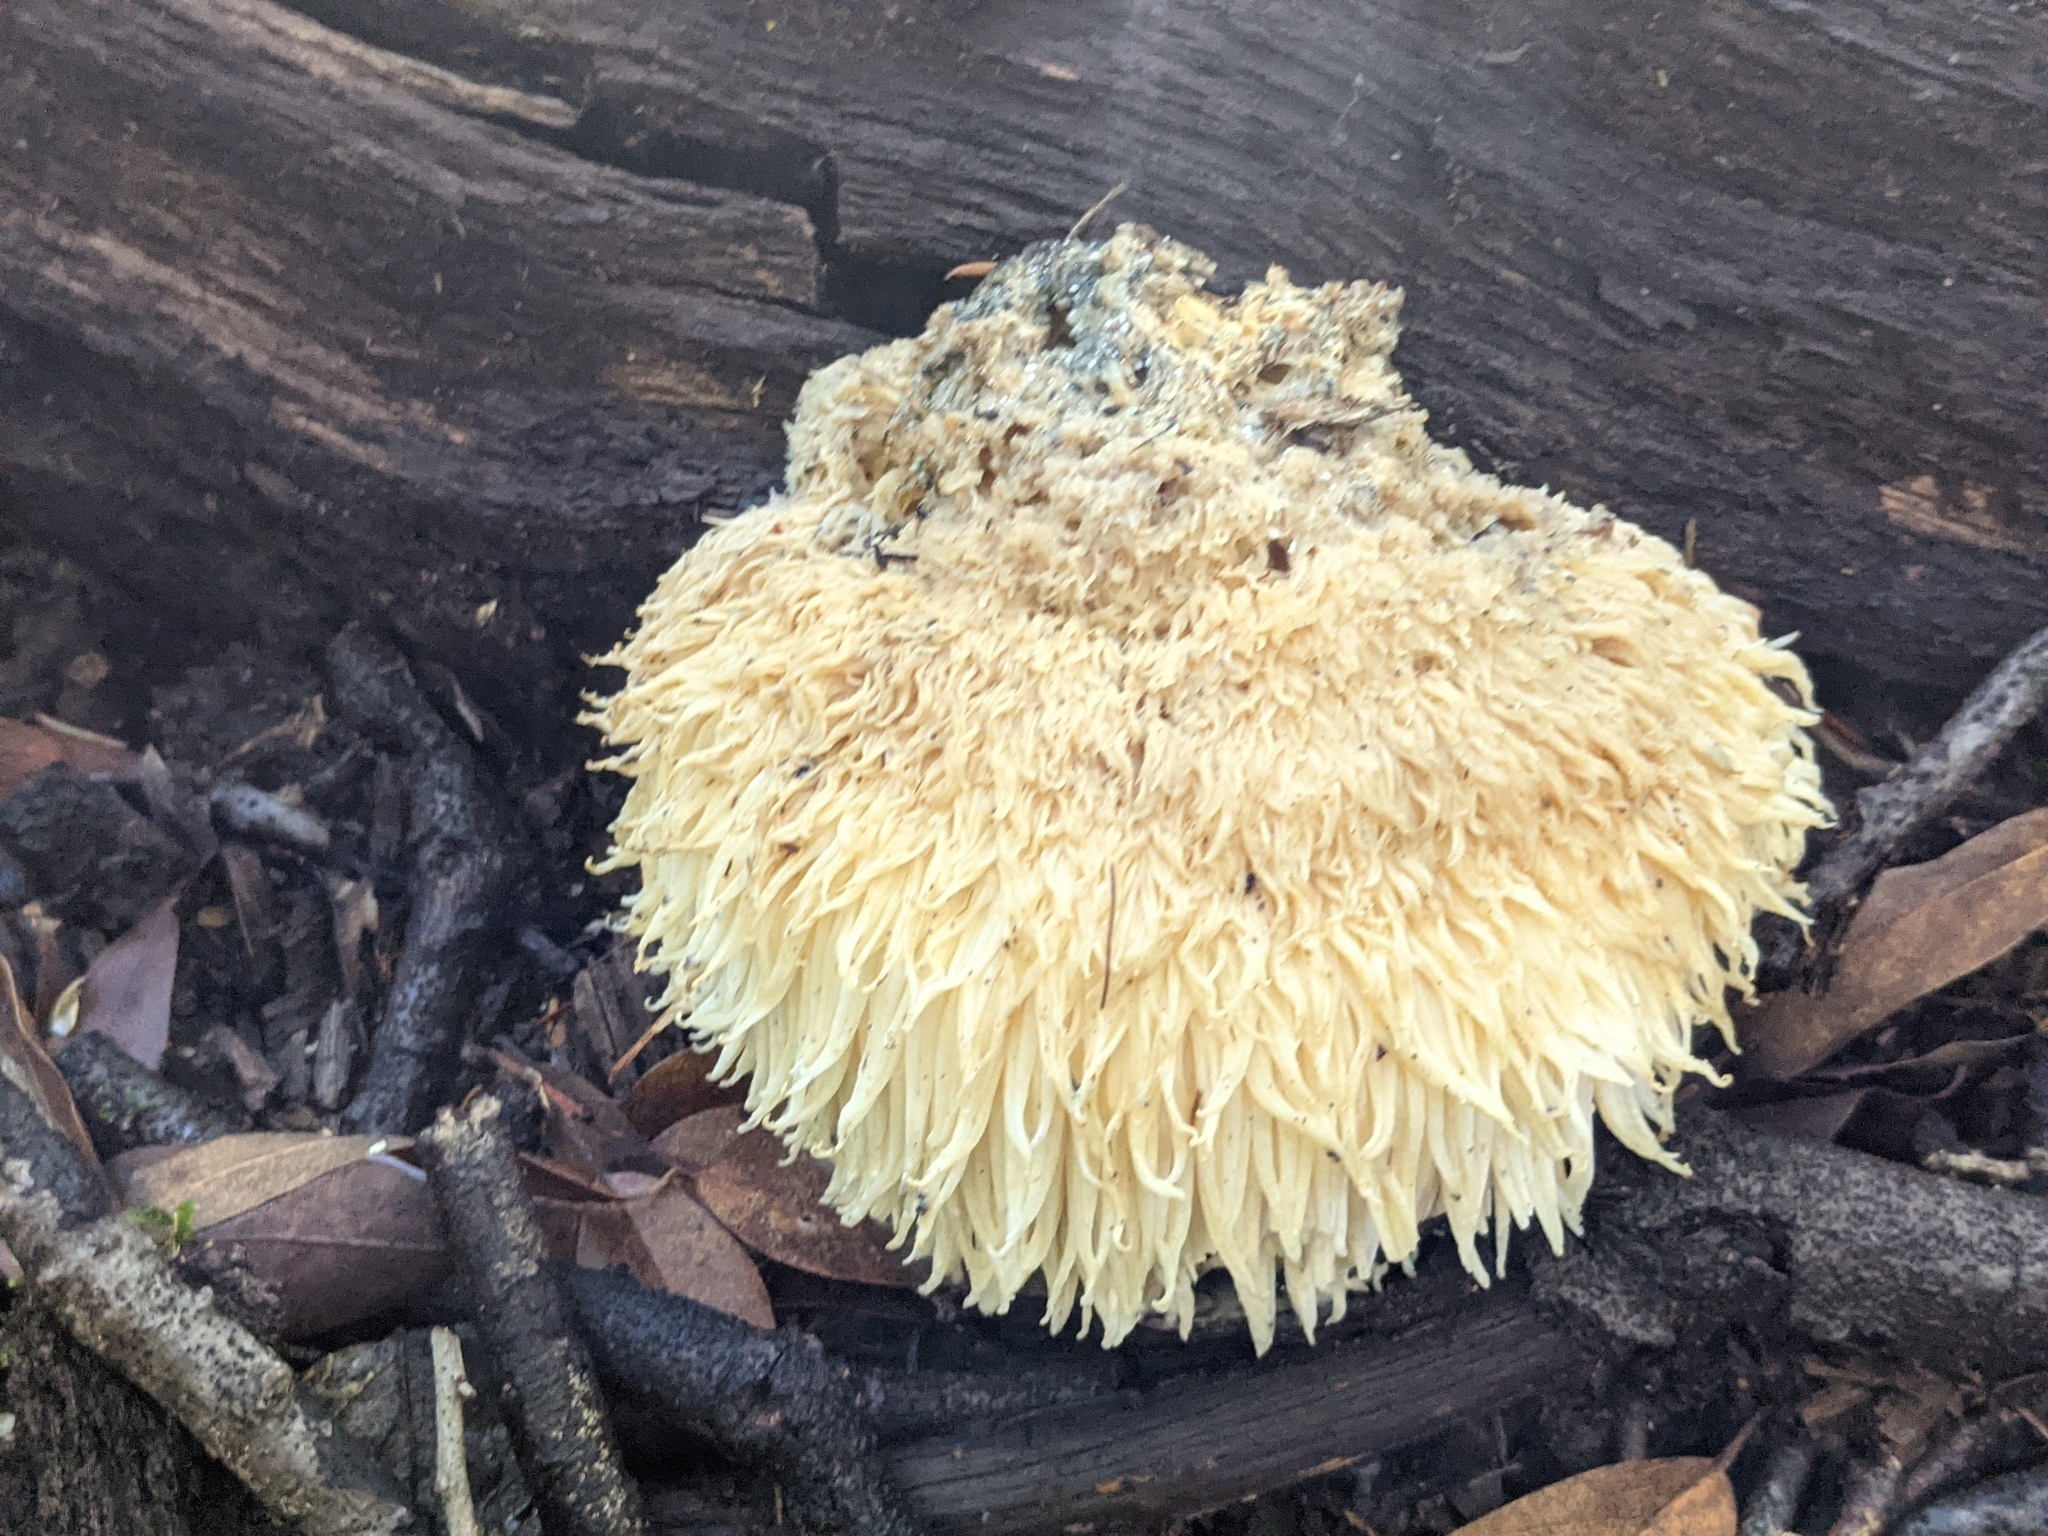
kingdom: Fungi
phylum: Basidiomycota
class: Agaricomycetes
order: Russulales
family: Hericiaceae
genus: Hericium
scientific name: Hericium erinaceus
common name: Bearded tooth
